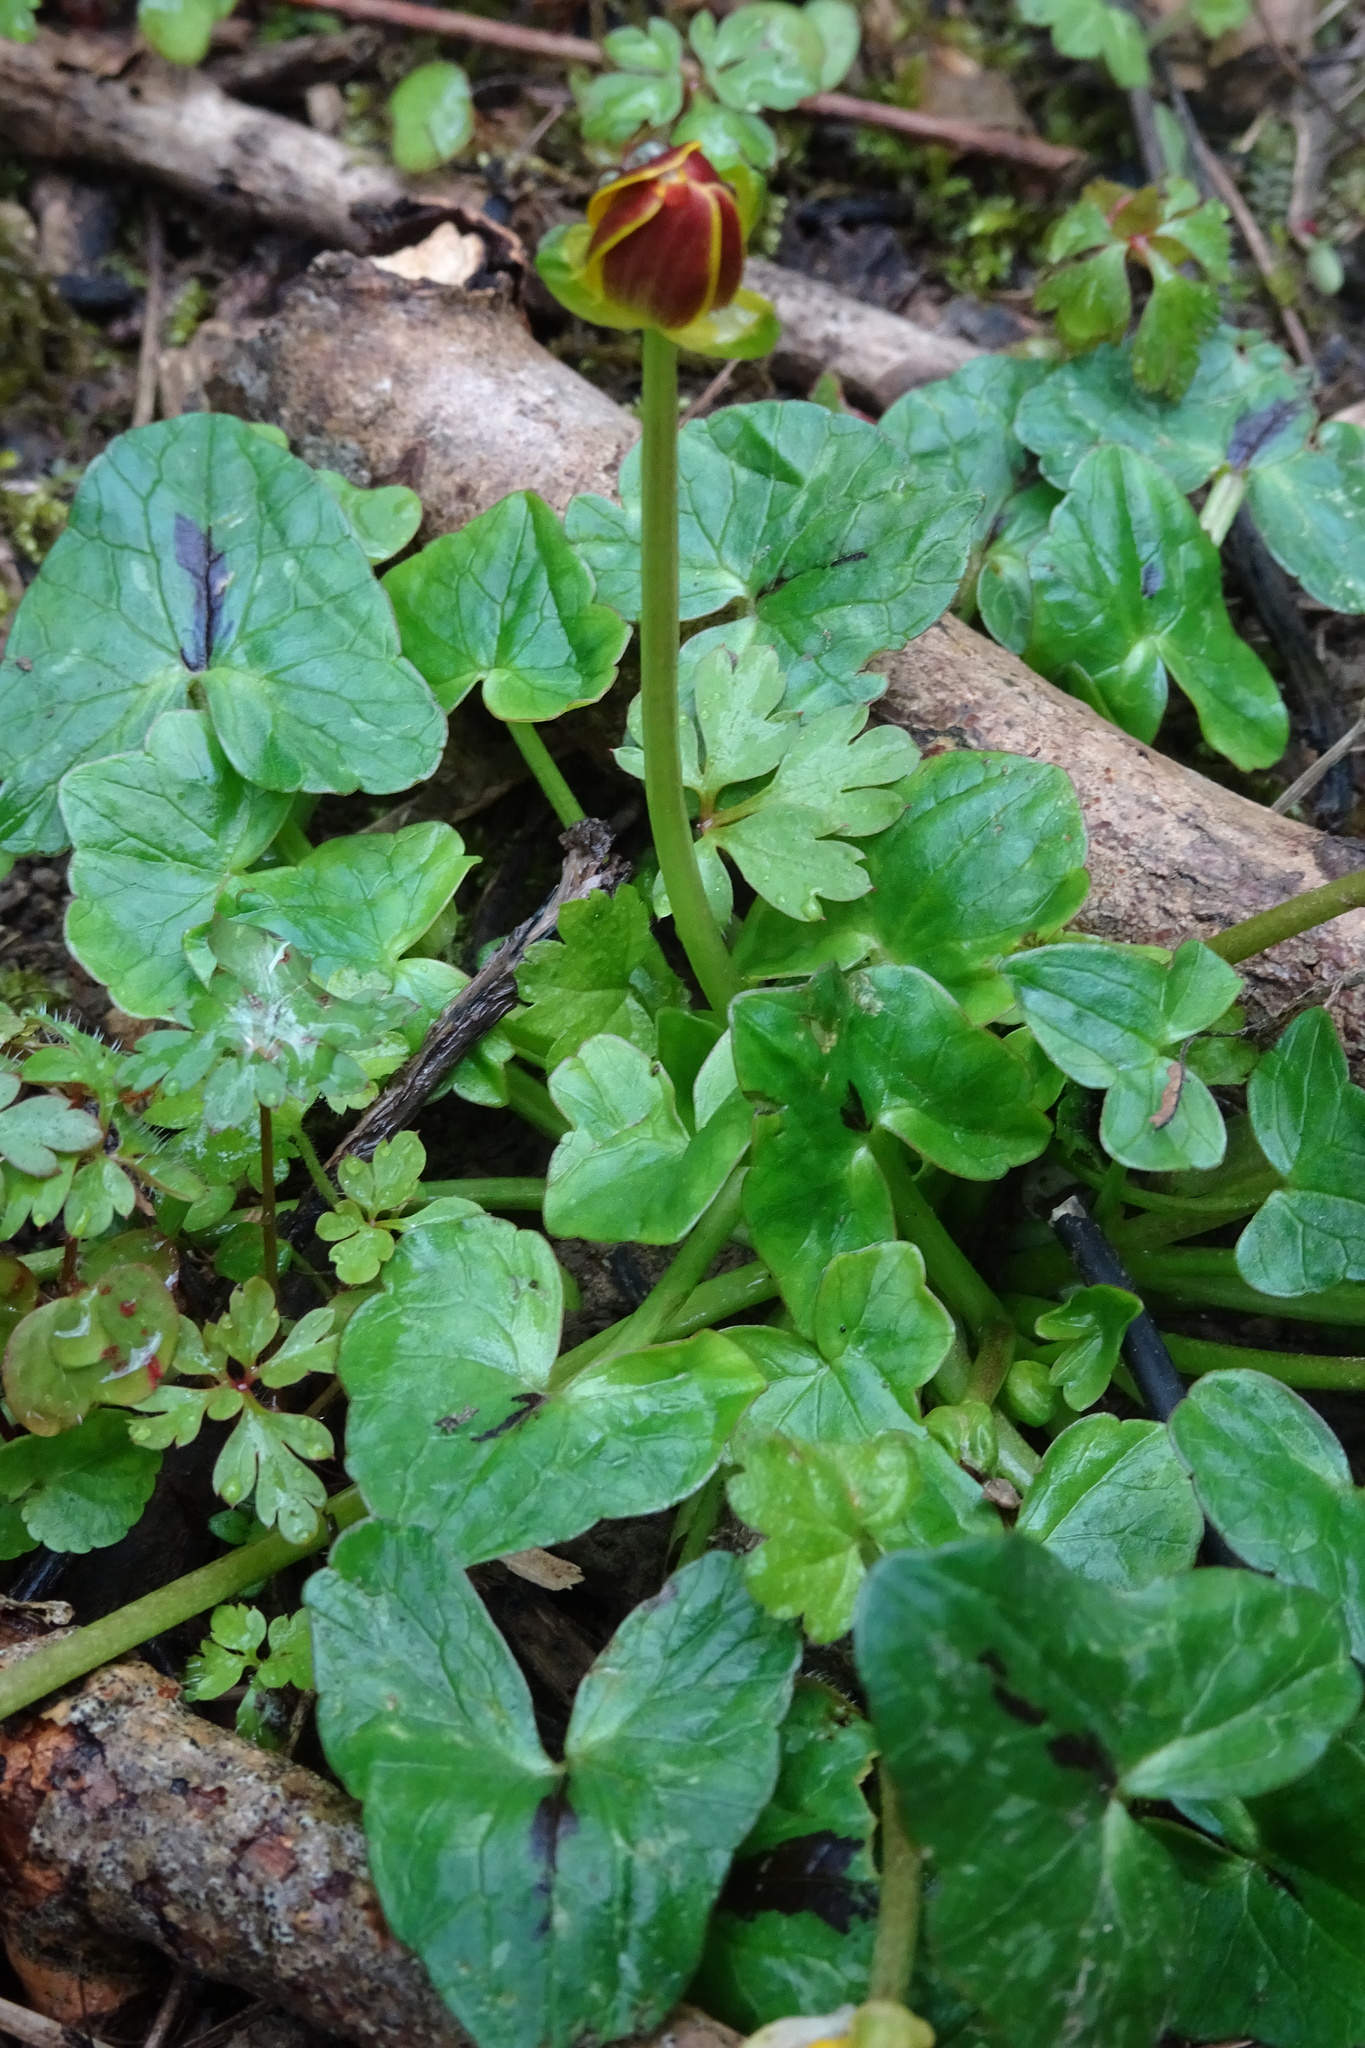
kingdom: Plantae
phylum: Tracheophyta
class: Magnoliopsida
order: Ranunculales
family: Ranunculaceae
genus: Ficaria
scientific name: Ficaria verna
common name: Lesser celandine
